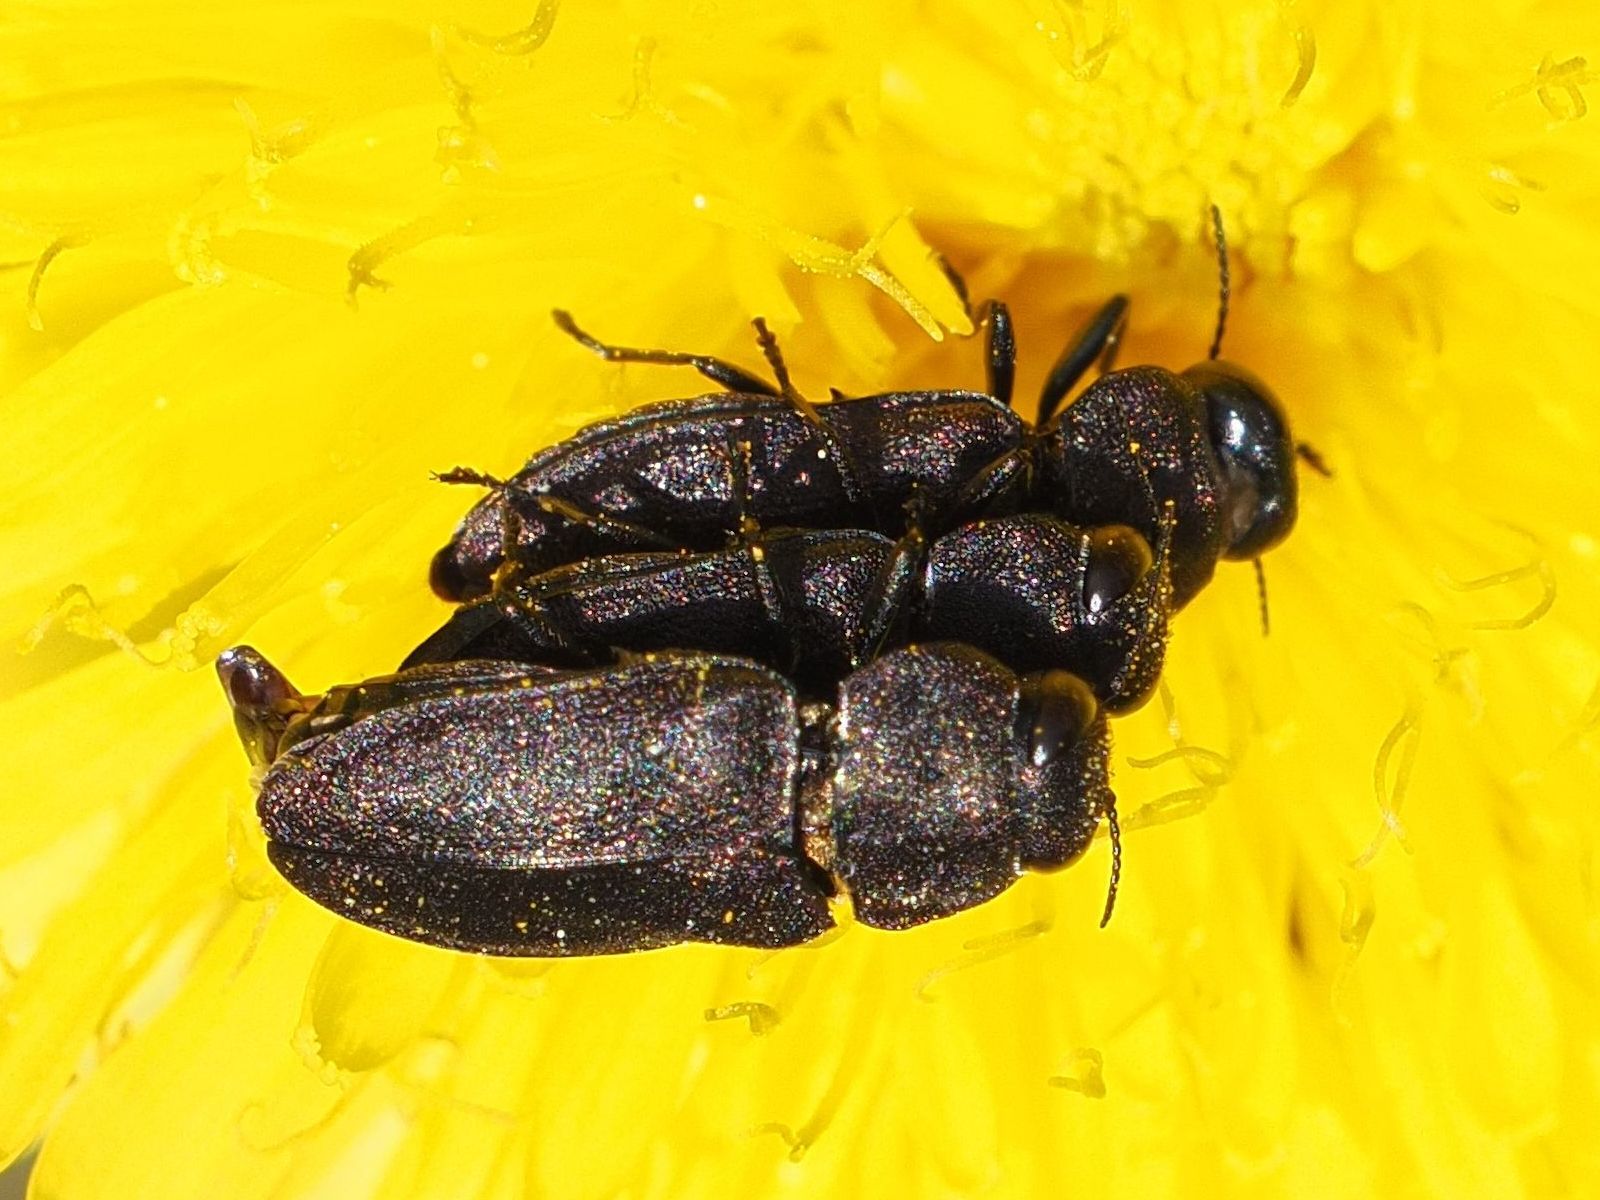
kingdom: Animalia
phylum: Arthropoda
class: Insecta
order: Coleoptera
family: Buprestidae
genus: Anthaxia
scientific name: Anthaxia helvetica
